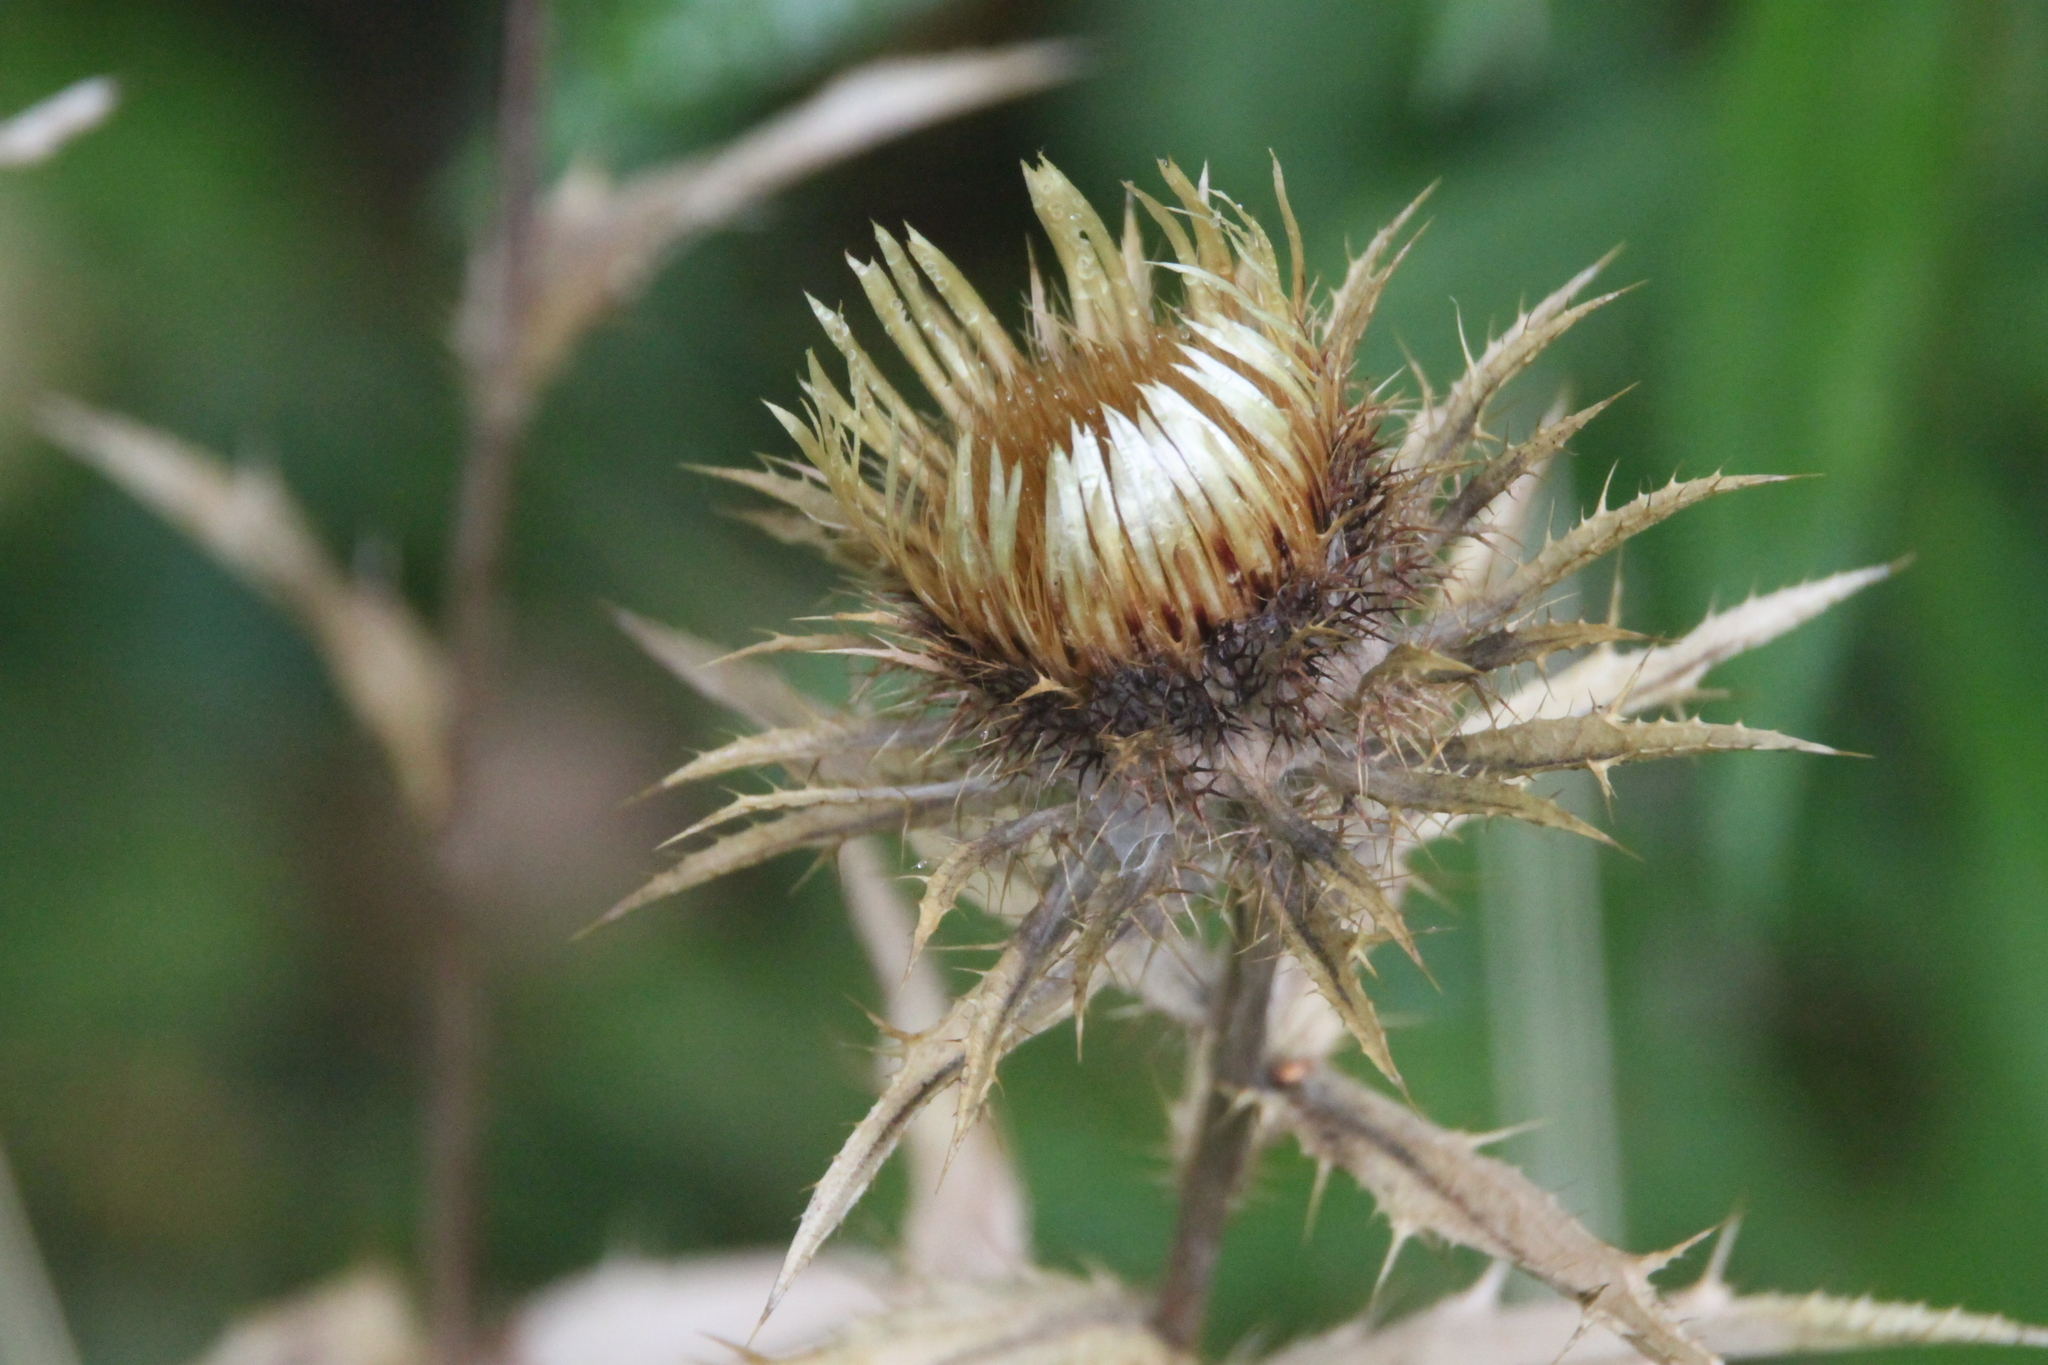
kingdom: Plantae
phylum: Tracheophyta
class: Magnoliopsida
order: Asterales
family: Asteraceae
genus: Carlina
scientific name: Carlina biebersteinii
